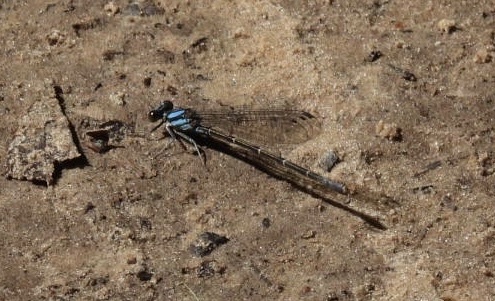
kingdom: Animalia
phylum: Arthropoda
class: Insecta
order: Odonata
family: Coenagrionidae
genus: Argia
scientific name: Argia tibialis
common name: Blue-tipped dancer
